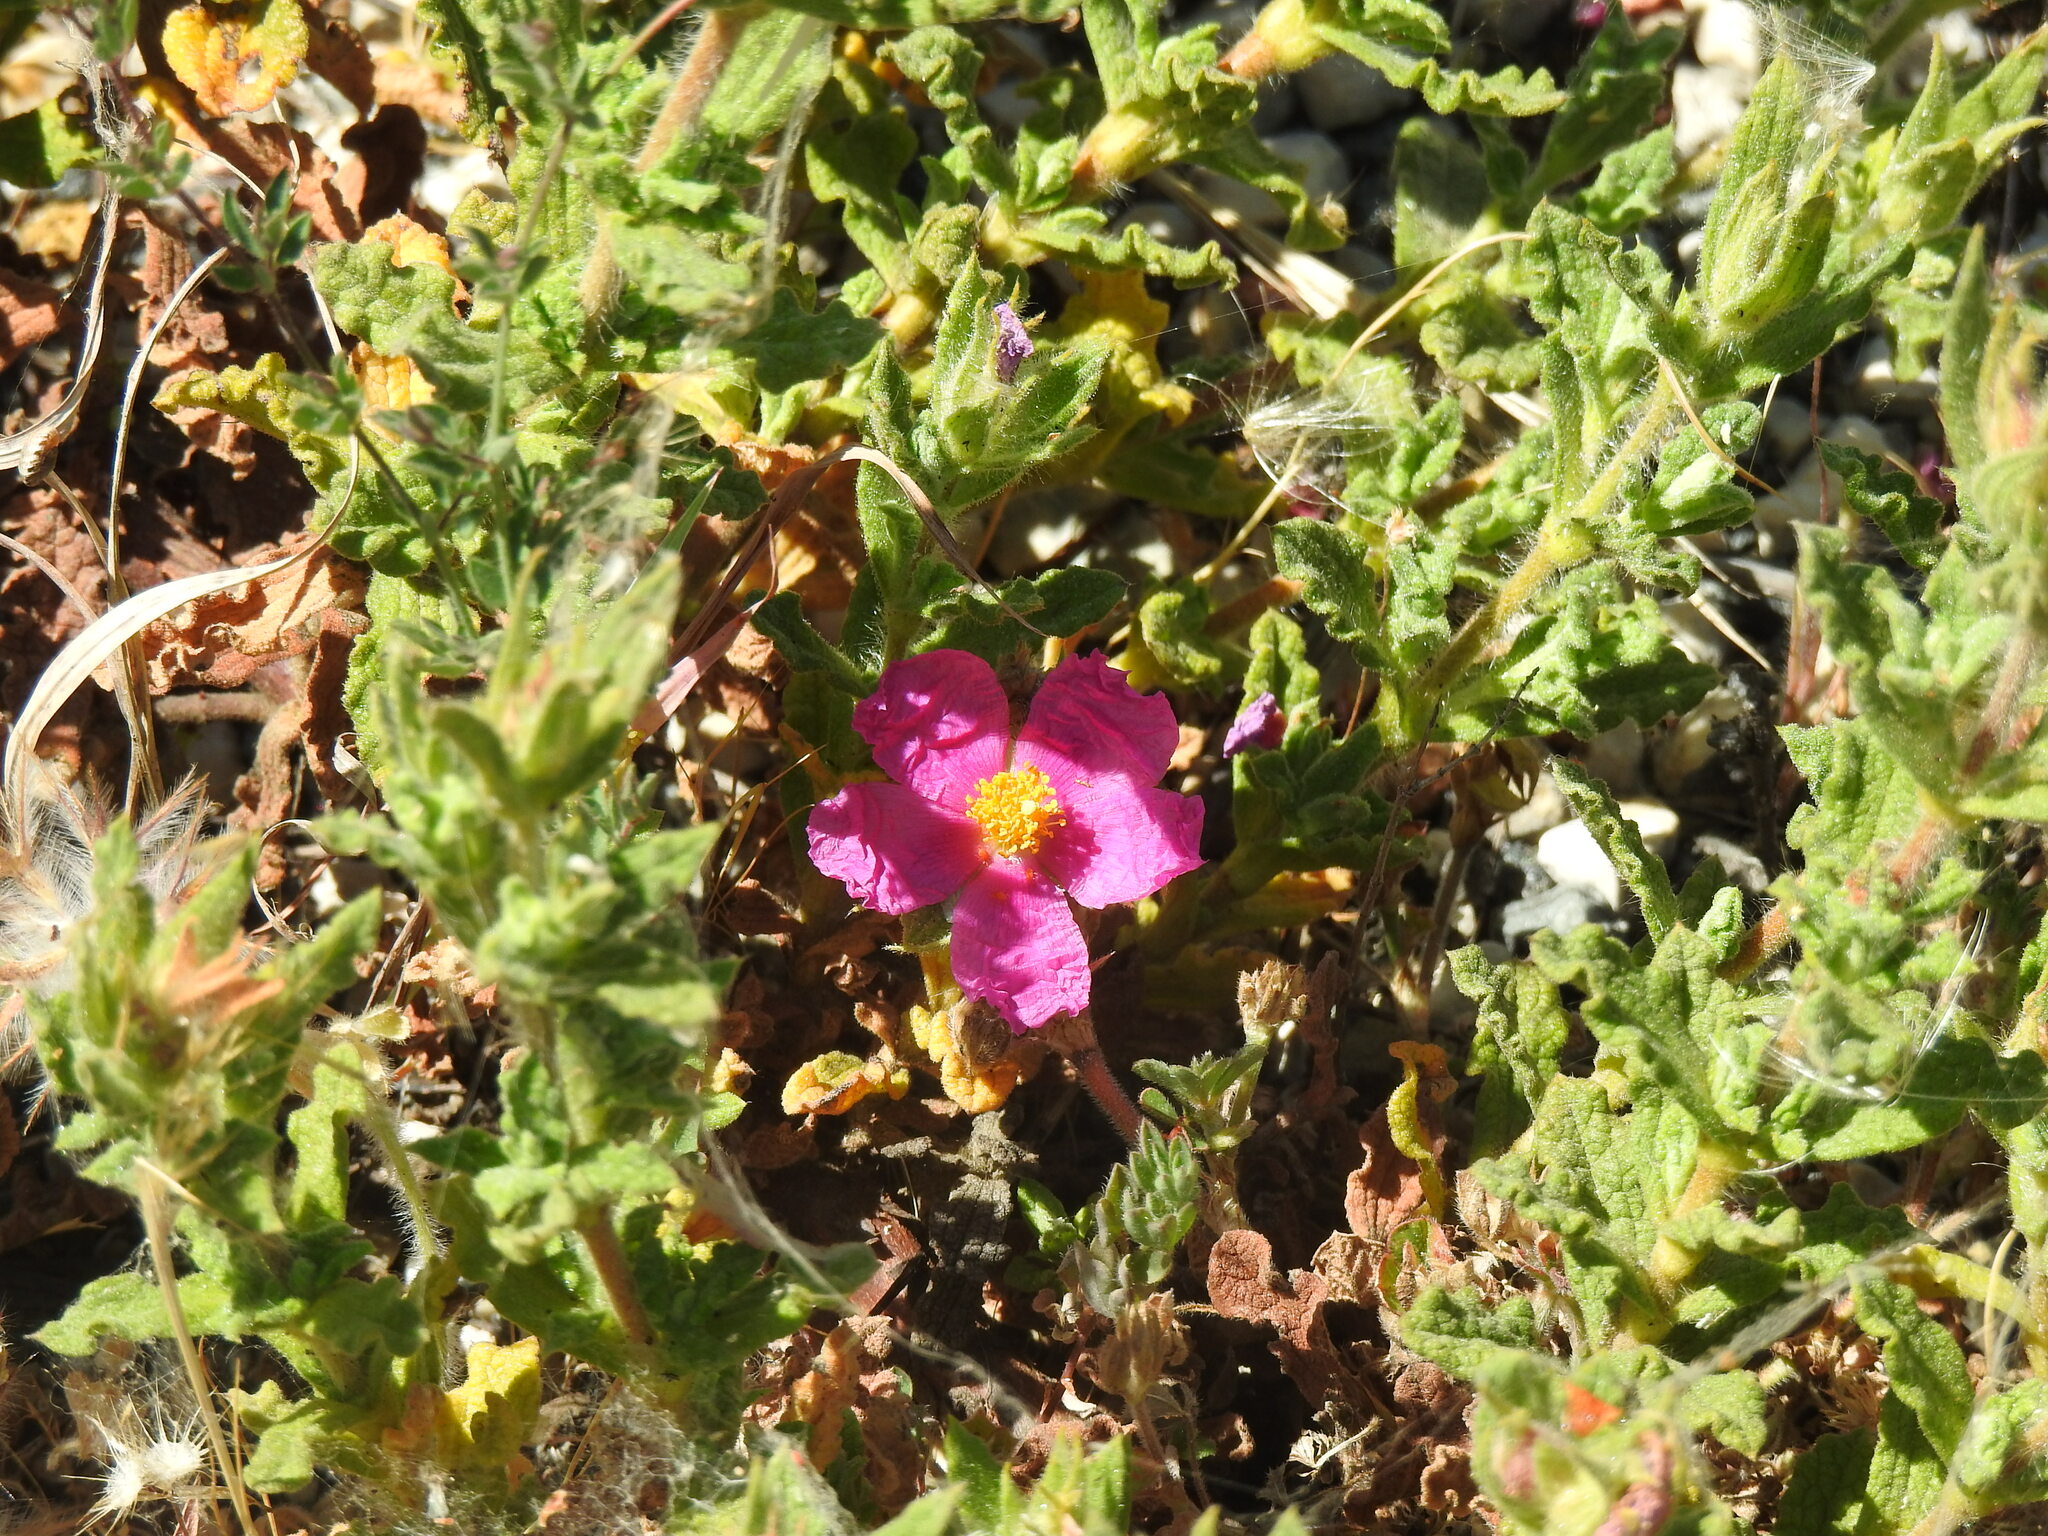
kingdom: Plantae
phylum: Tracheophyta
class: Magnoliopsida
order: Malvales
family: Cistaceae
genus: Cistus
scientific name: Cistus crispus
